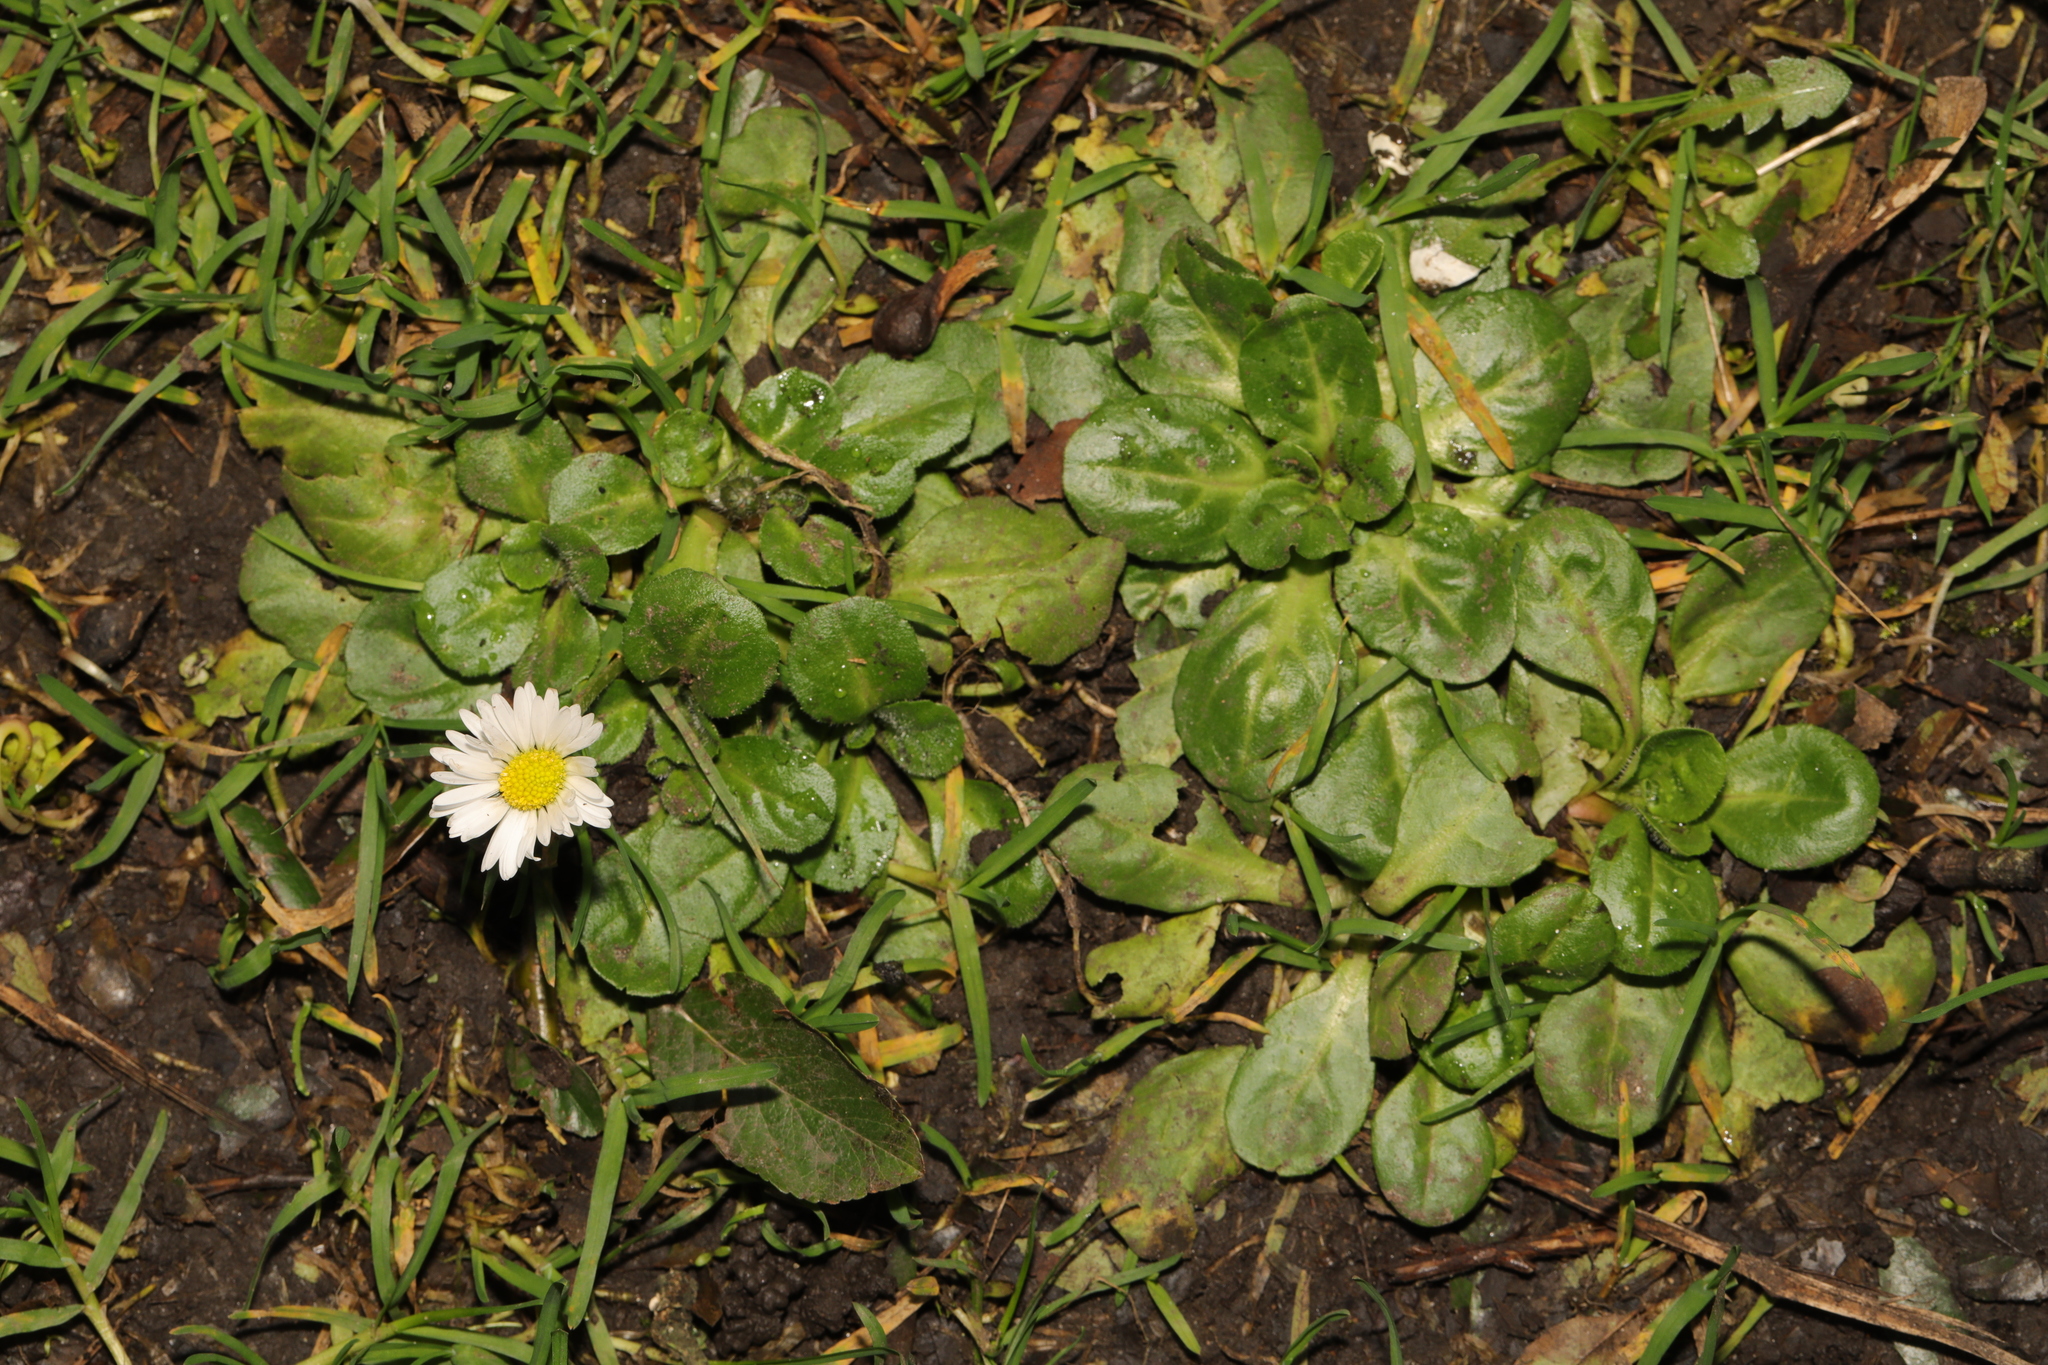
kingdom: Plantae
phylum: Tracheophyta
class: Magnoliopsida
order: Asterales
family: Asteraceae
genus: Bellis
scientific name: Bellis perennis
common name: Lawndaisy
